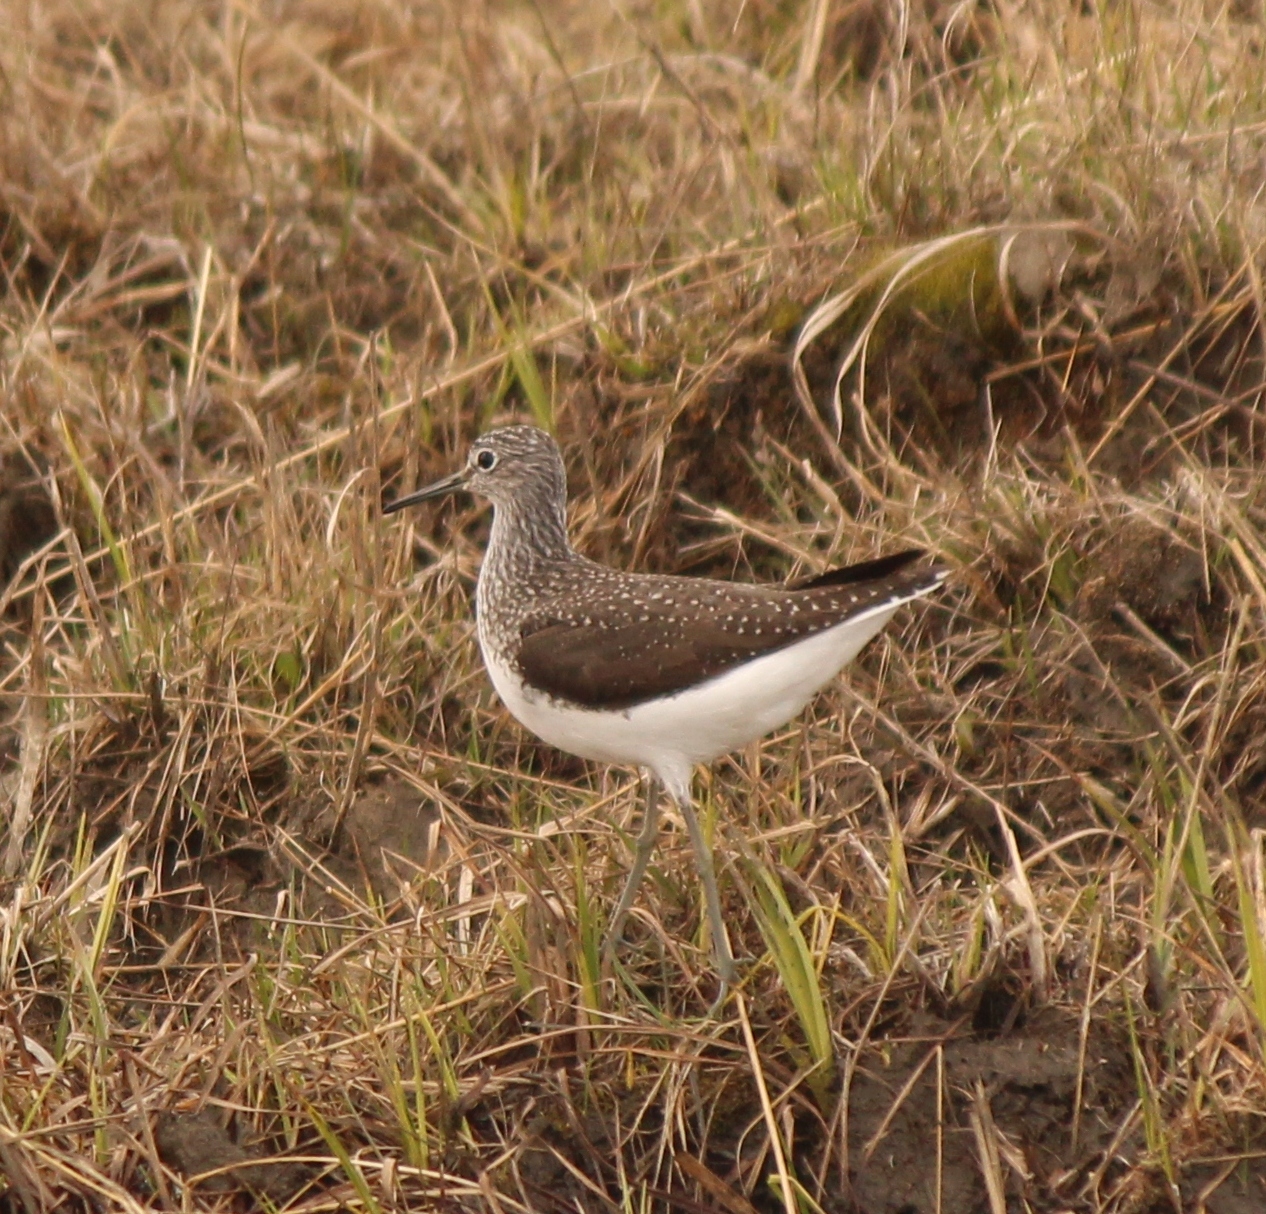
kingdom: Animalia
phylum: Chordata
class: Aves
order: Charadriiformes
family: Scolopacidae
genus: Tringa
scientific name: Tringa ochropus
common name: Green sandpiper
